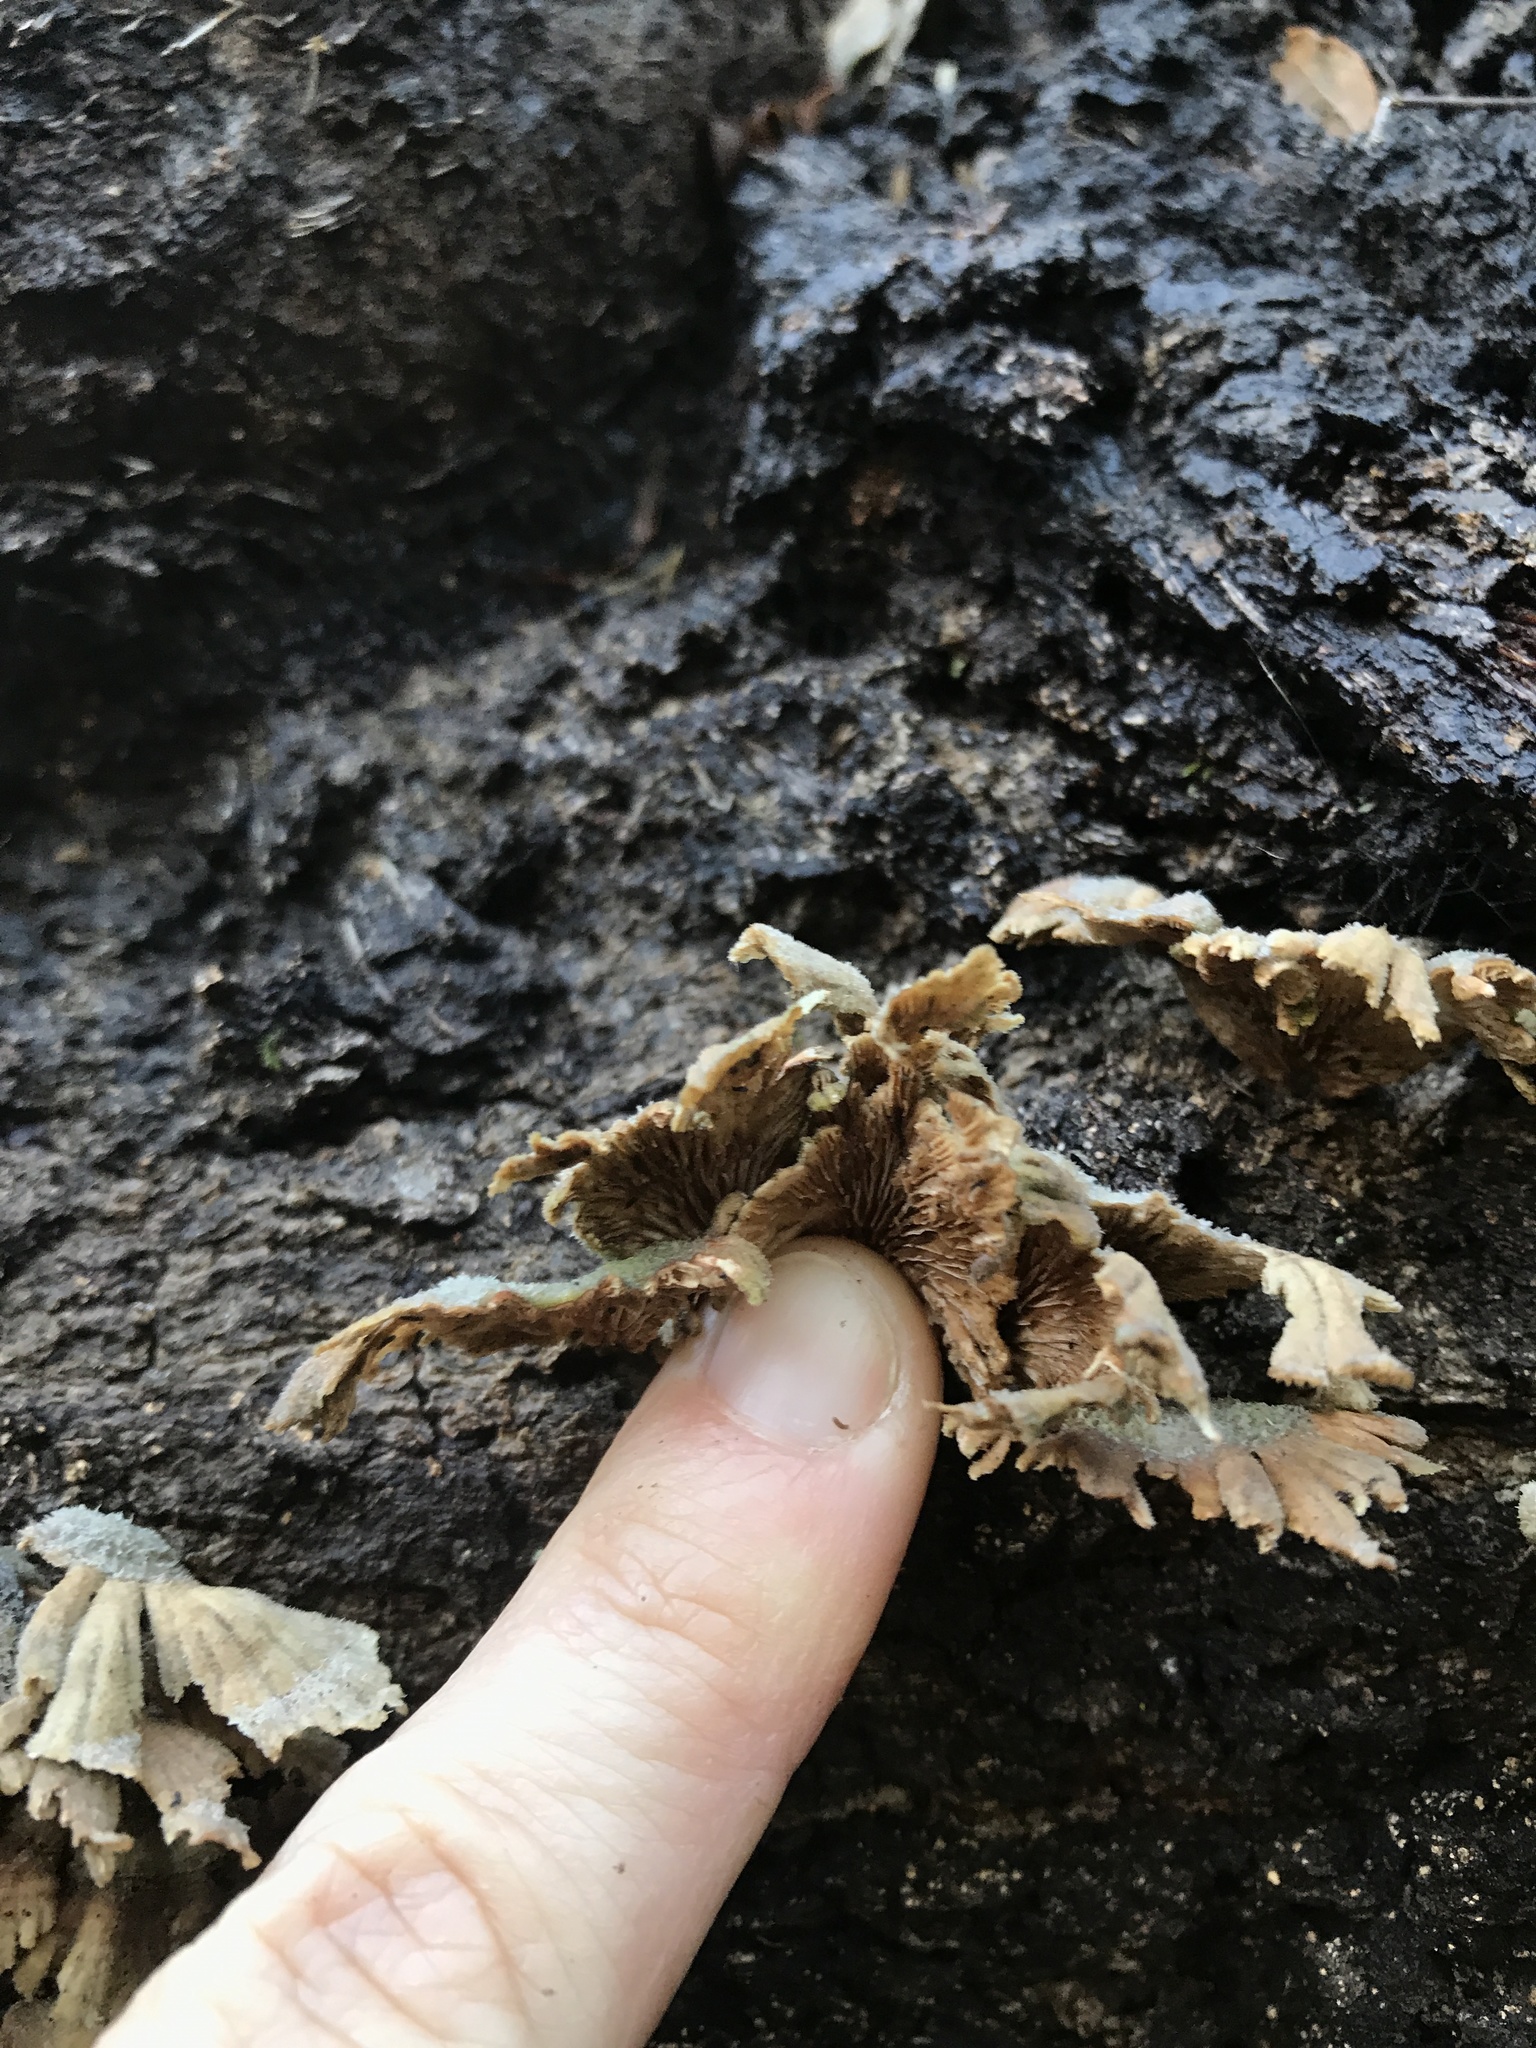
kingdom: Fungi
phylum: Basidiomycota
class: Agaricomycetes
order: Agaricales
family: Schizophyllaceae
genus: Schizophyllum
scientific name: Schizophyllum commune
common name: Common porecrust
